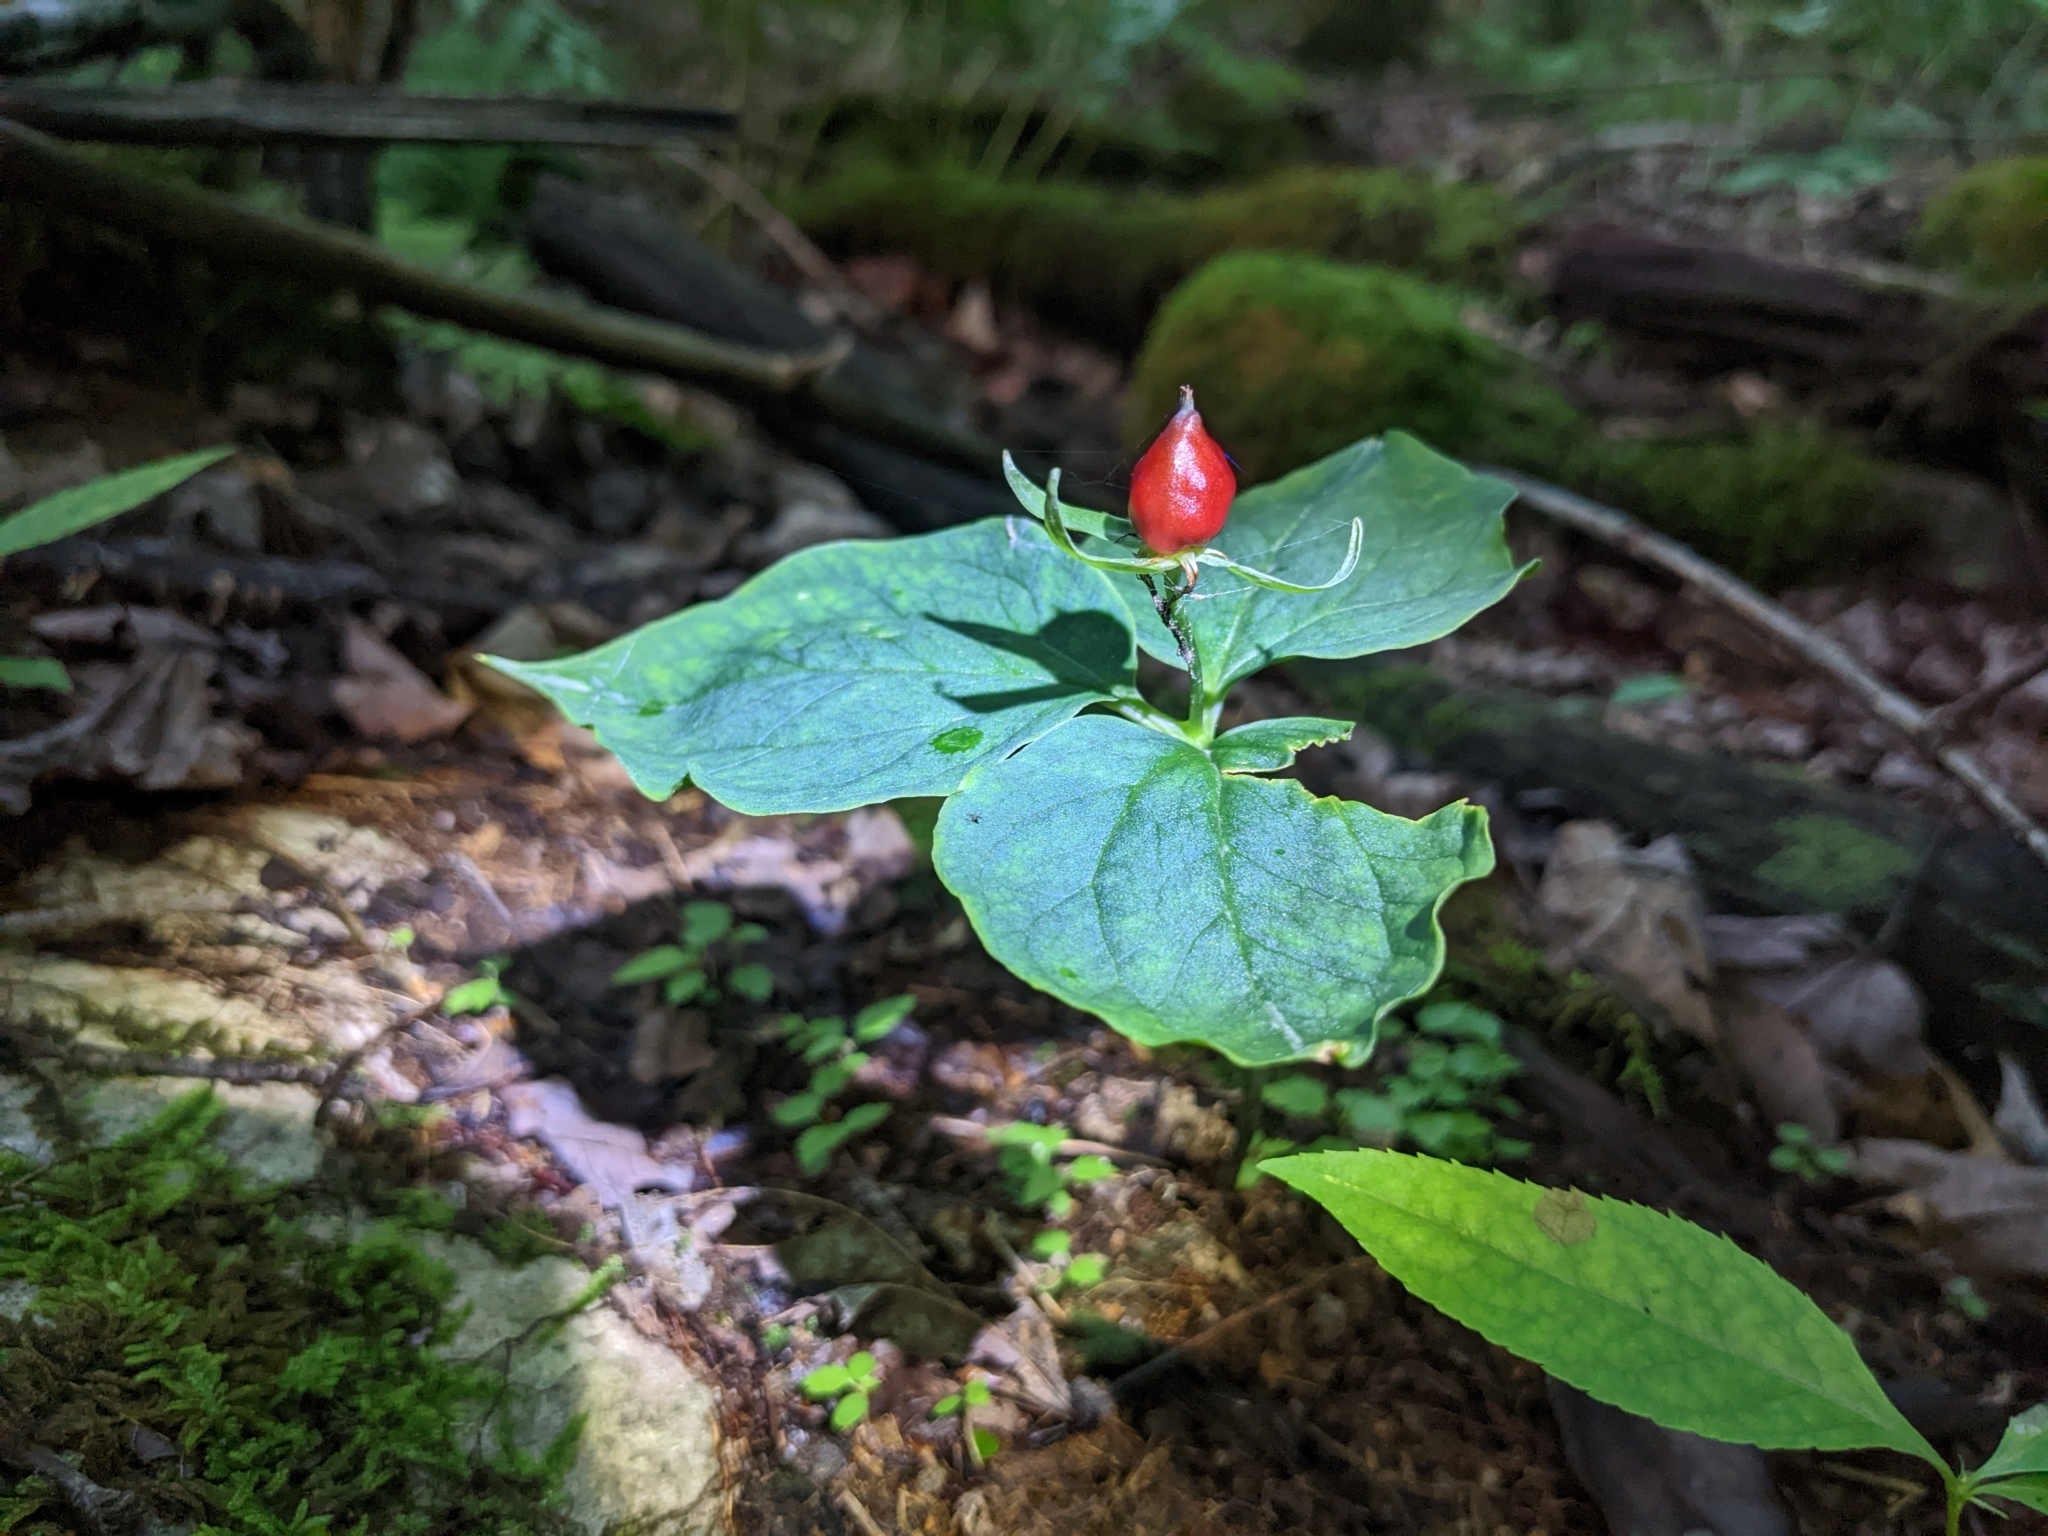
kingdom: Plantae
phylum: Tracheophyta
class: Liliopsida
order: Liliales
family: Melanthiaceae
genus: Trillium
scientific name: Trillium undulatum
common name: Paint trillium
